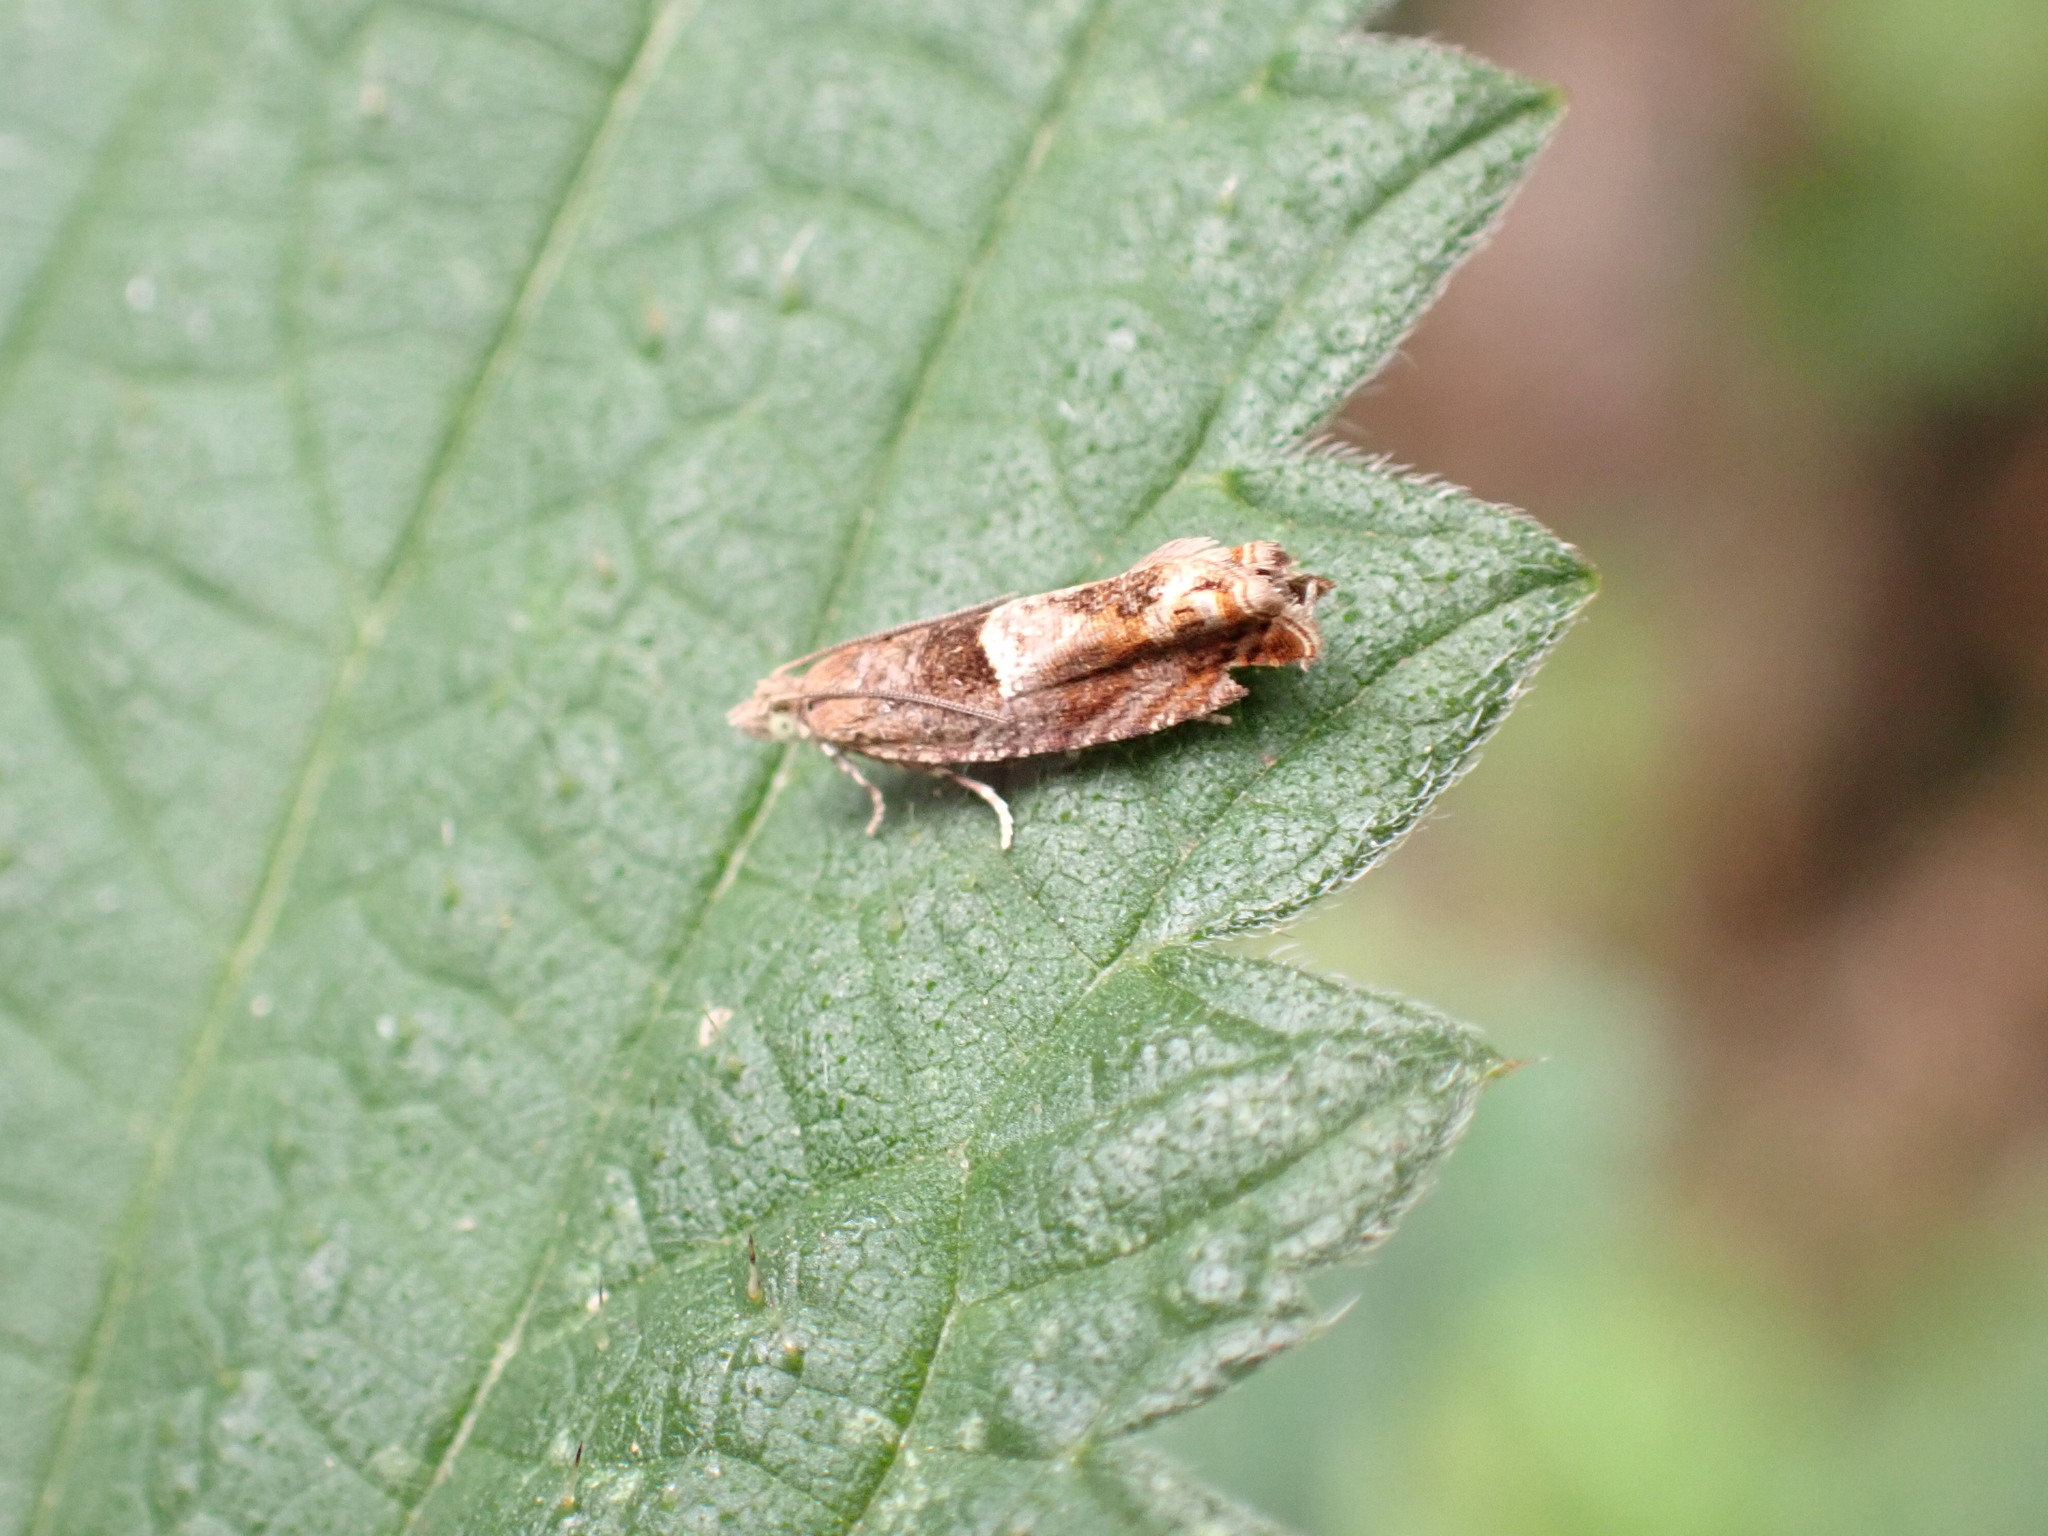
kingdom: Animalia
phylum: Arthropoda
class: Insecta
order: Lepidoptera
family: Tortricidae
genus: Epinotia
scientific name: Epinotia tenerana
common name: Nut bud moth
